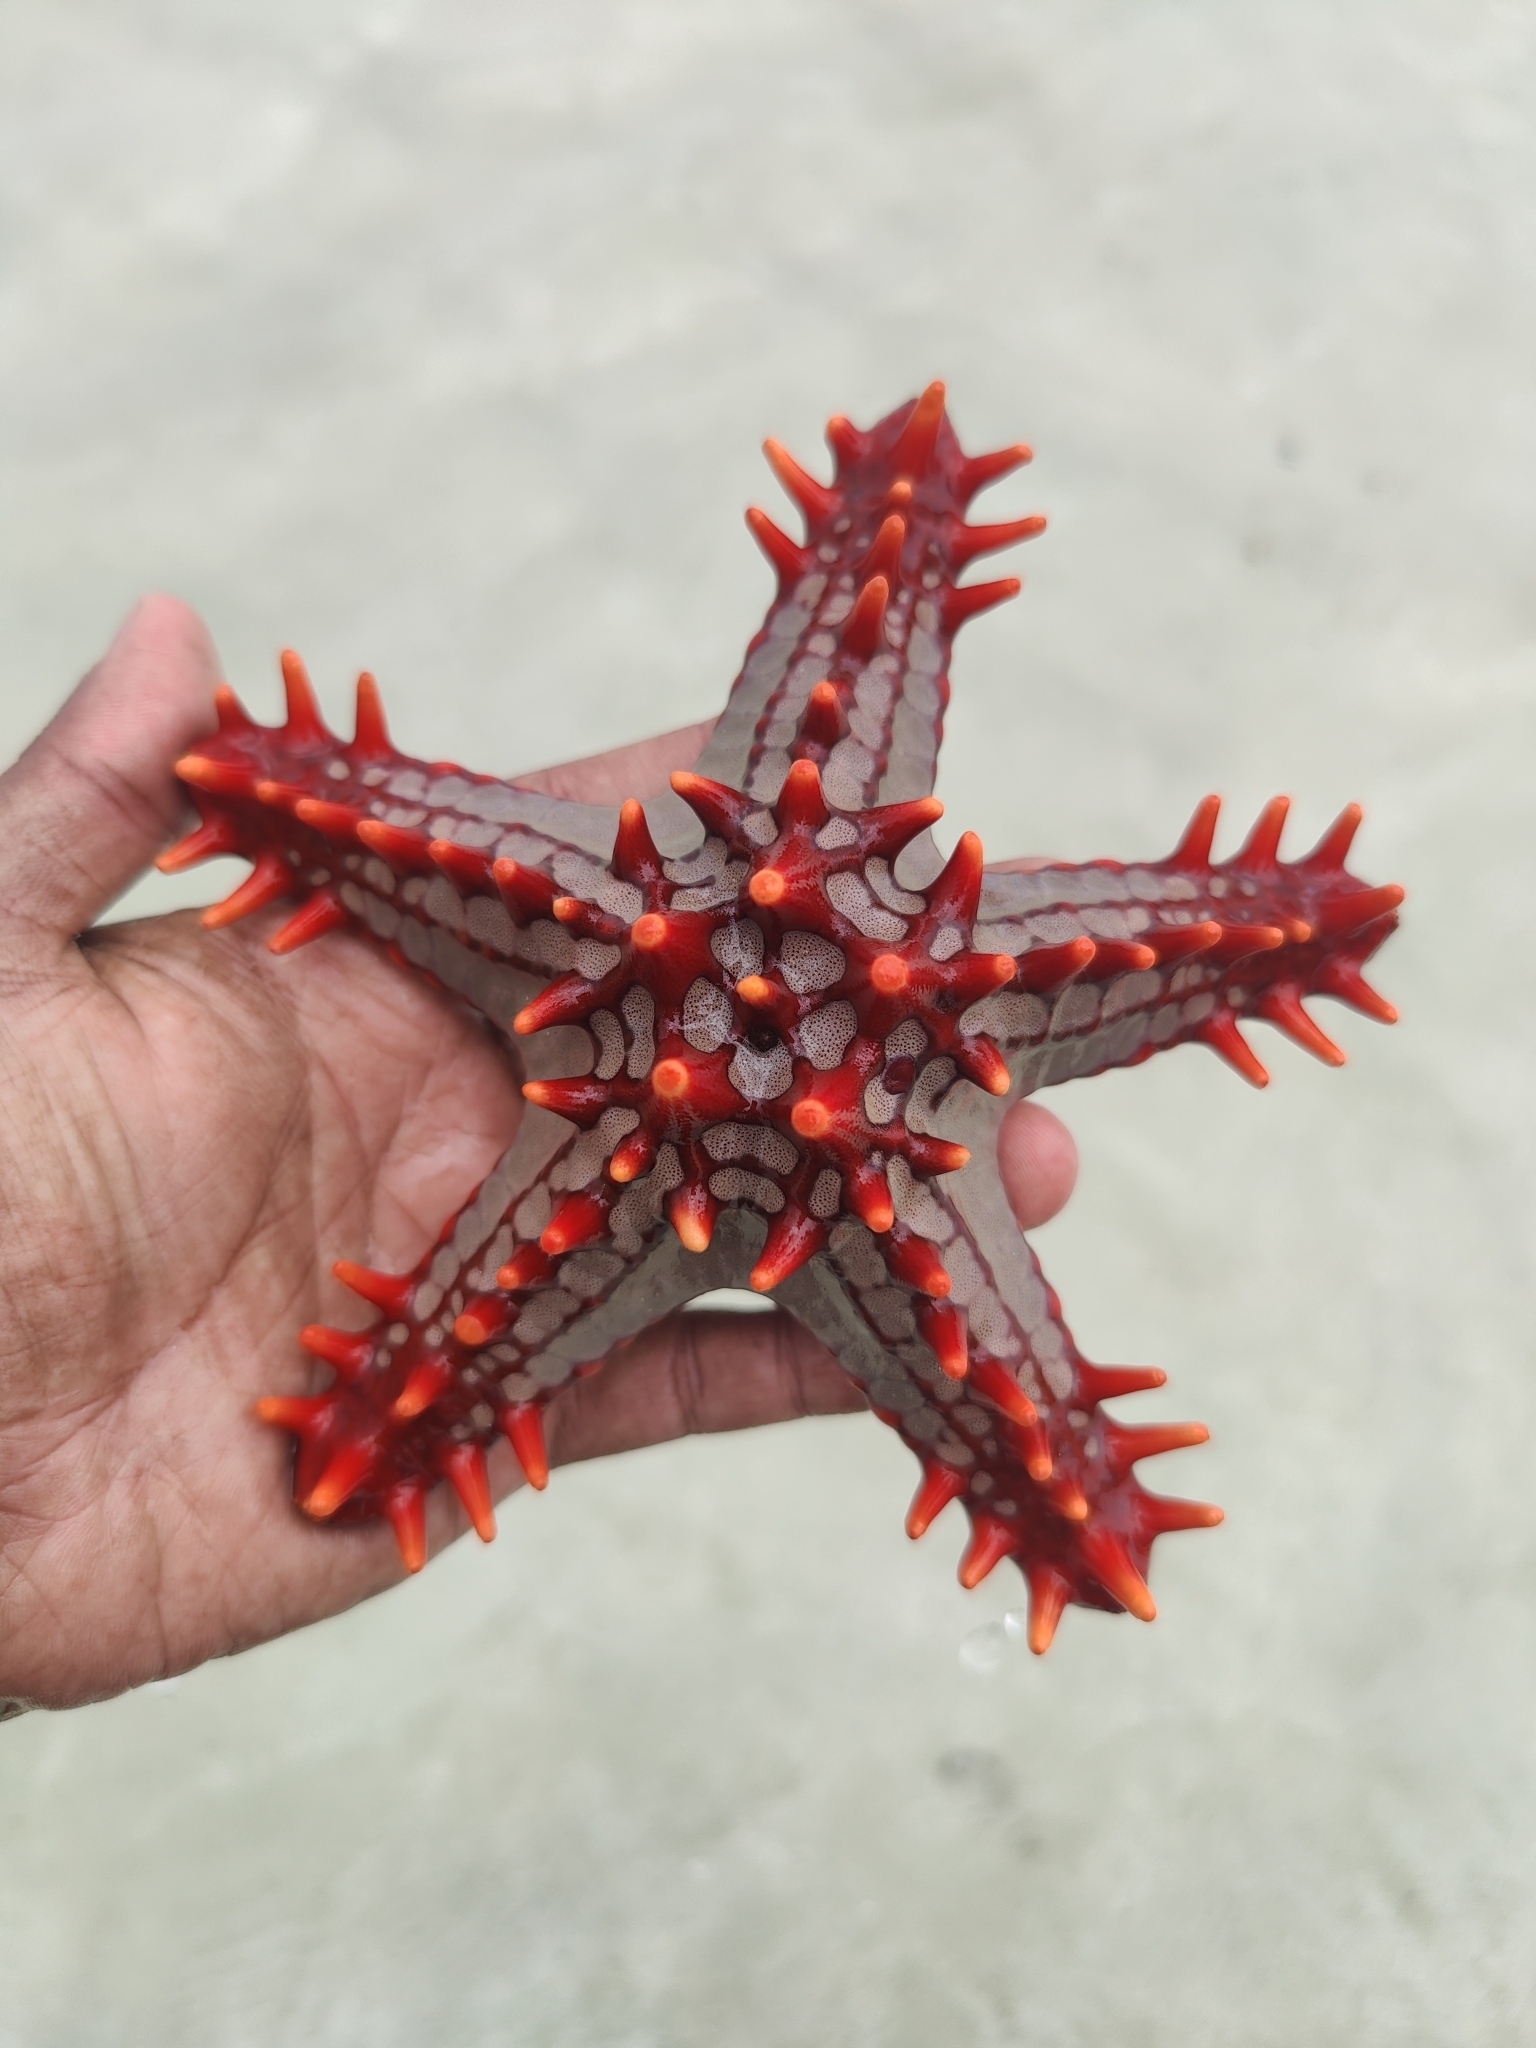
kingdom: Animalia
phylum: Echinodermata
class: Asteroidea
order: Valvatida
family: Oreasteridae
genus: Protoreaster
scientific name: Protoreaster lincki
